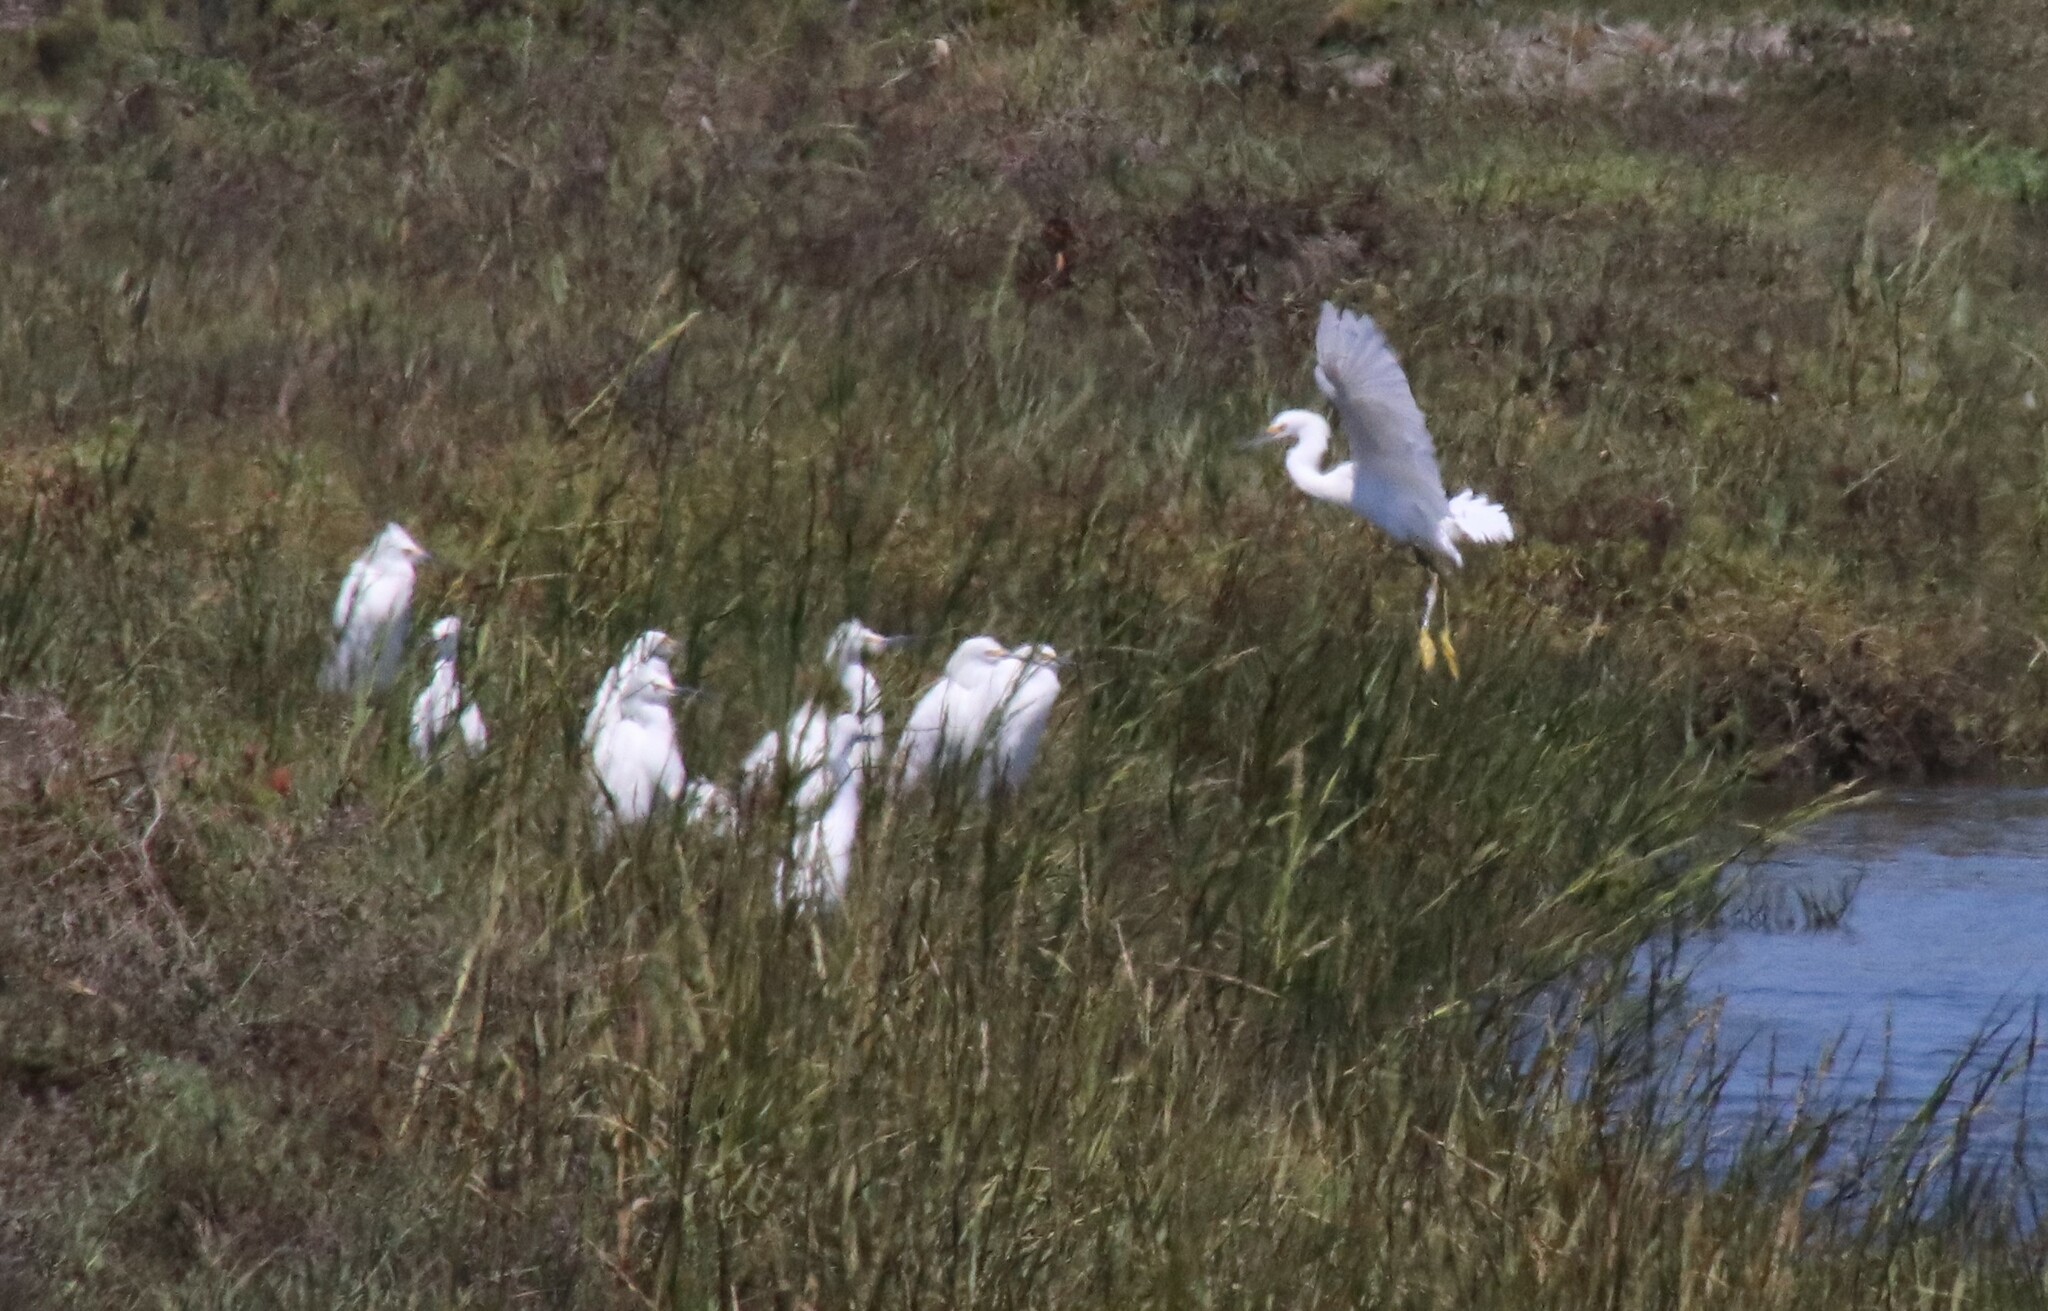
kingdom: Animalia
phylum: Chordata
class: Aves
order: Pelecaniformes
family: Ardeidae
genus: Egretta
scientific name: Egretta thula
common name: Snowy egret
